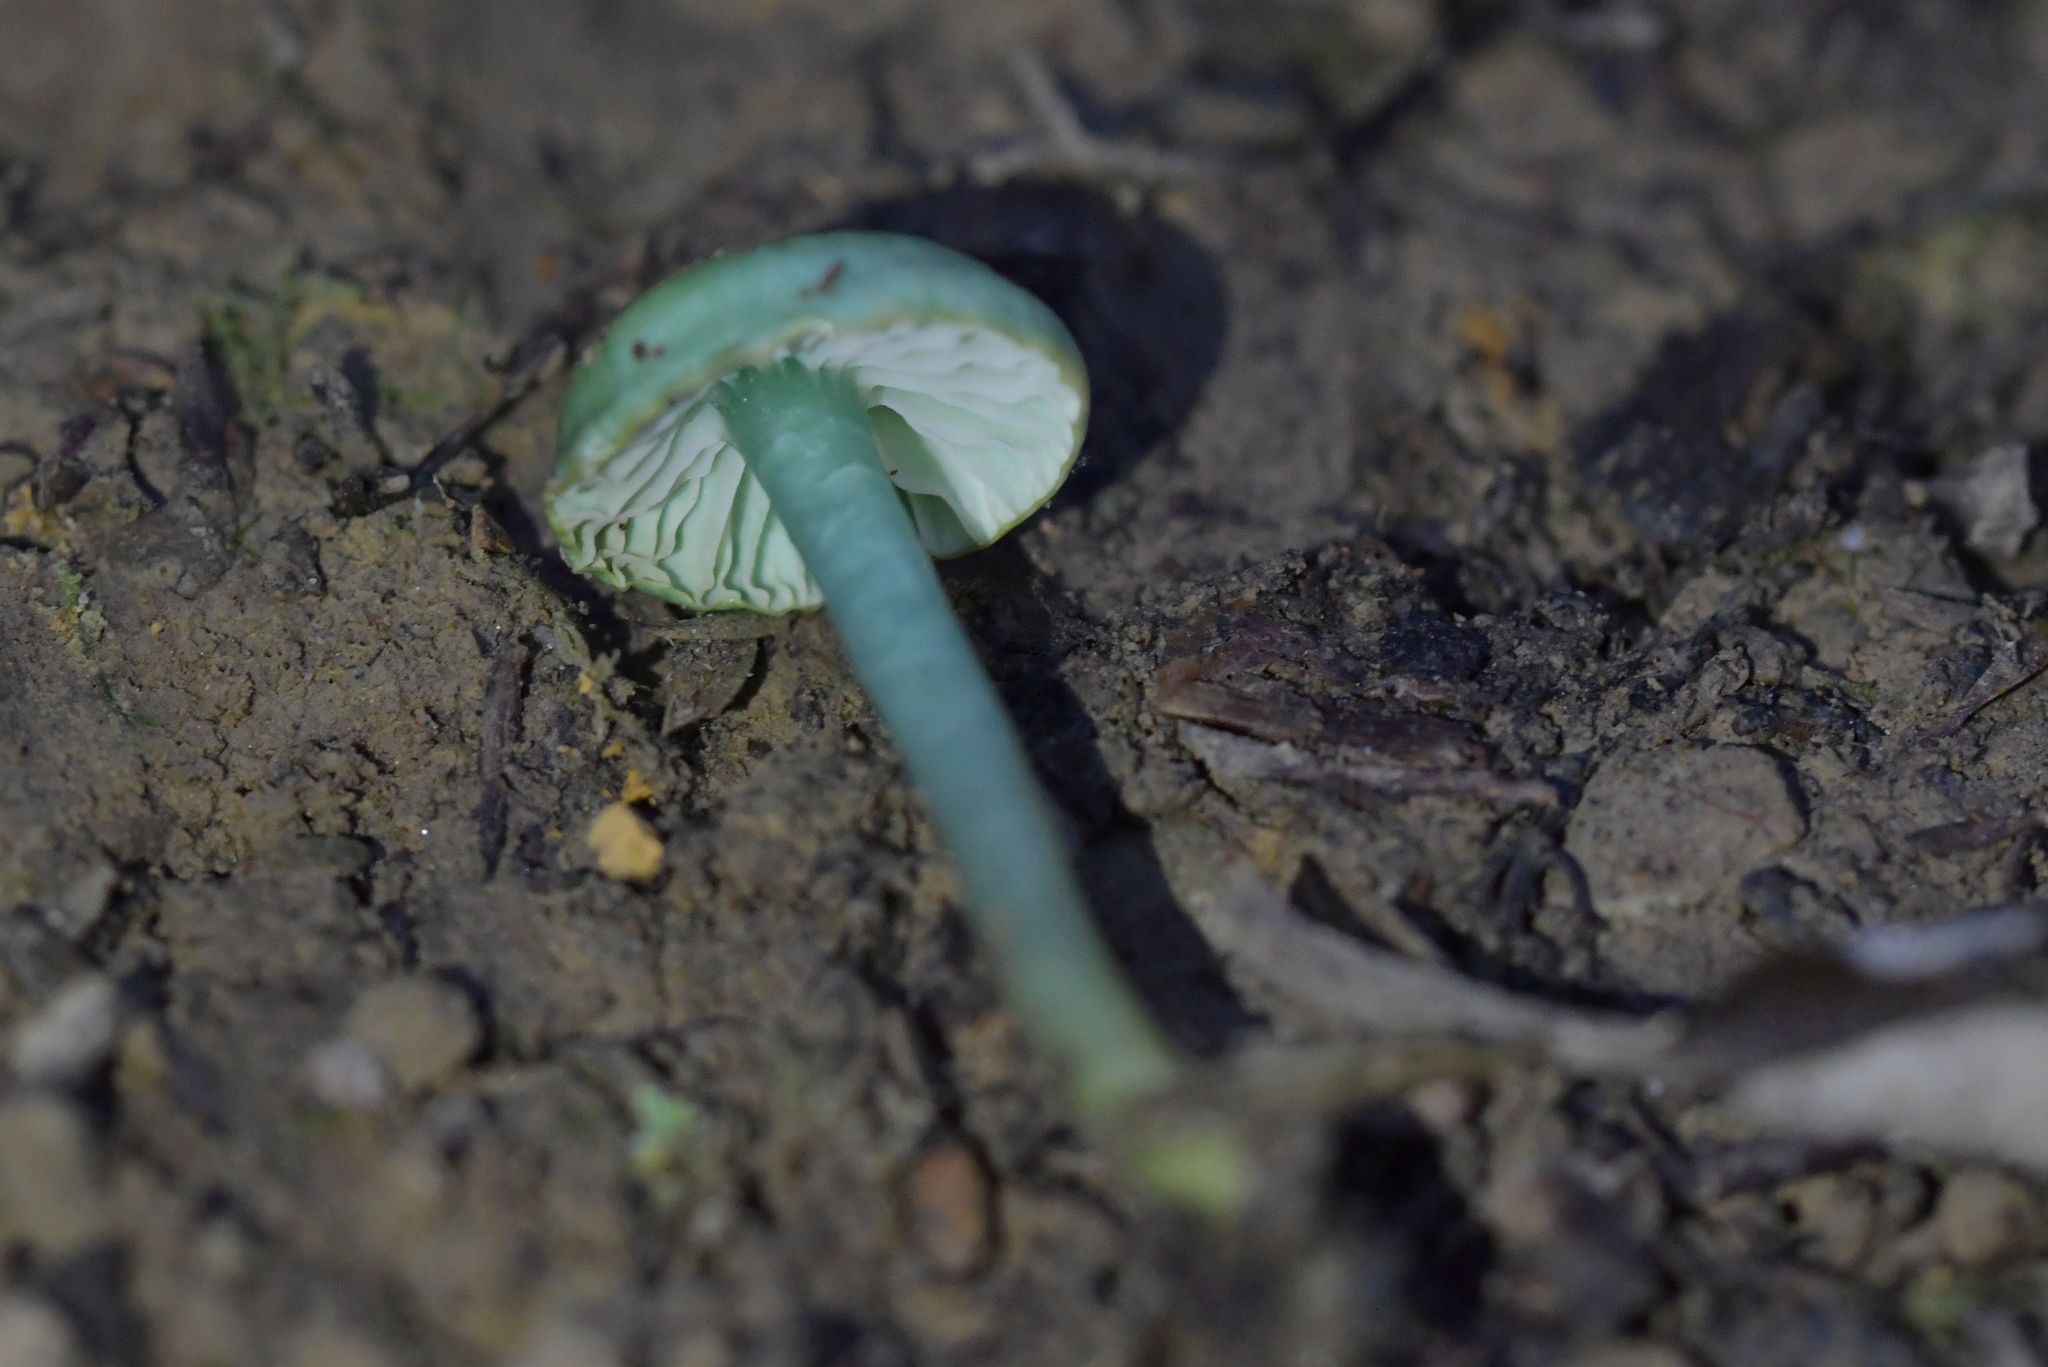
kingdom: Fungi
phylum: Basidiomycota
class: Agaricomycetes
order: Agaricales
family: Hygrophoraceae
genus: Gliophorus
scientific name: Gliophorus viridis
